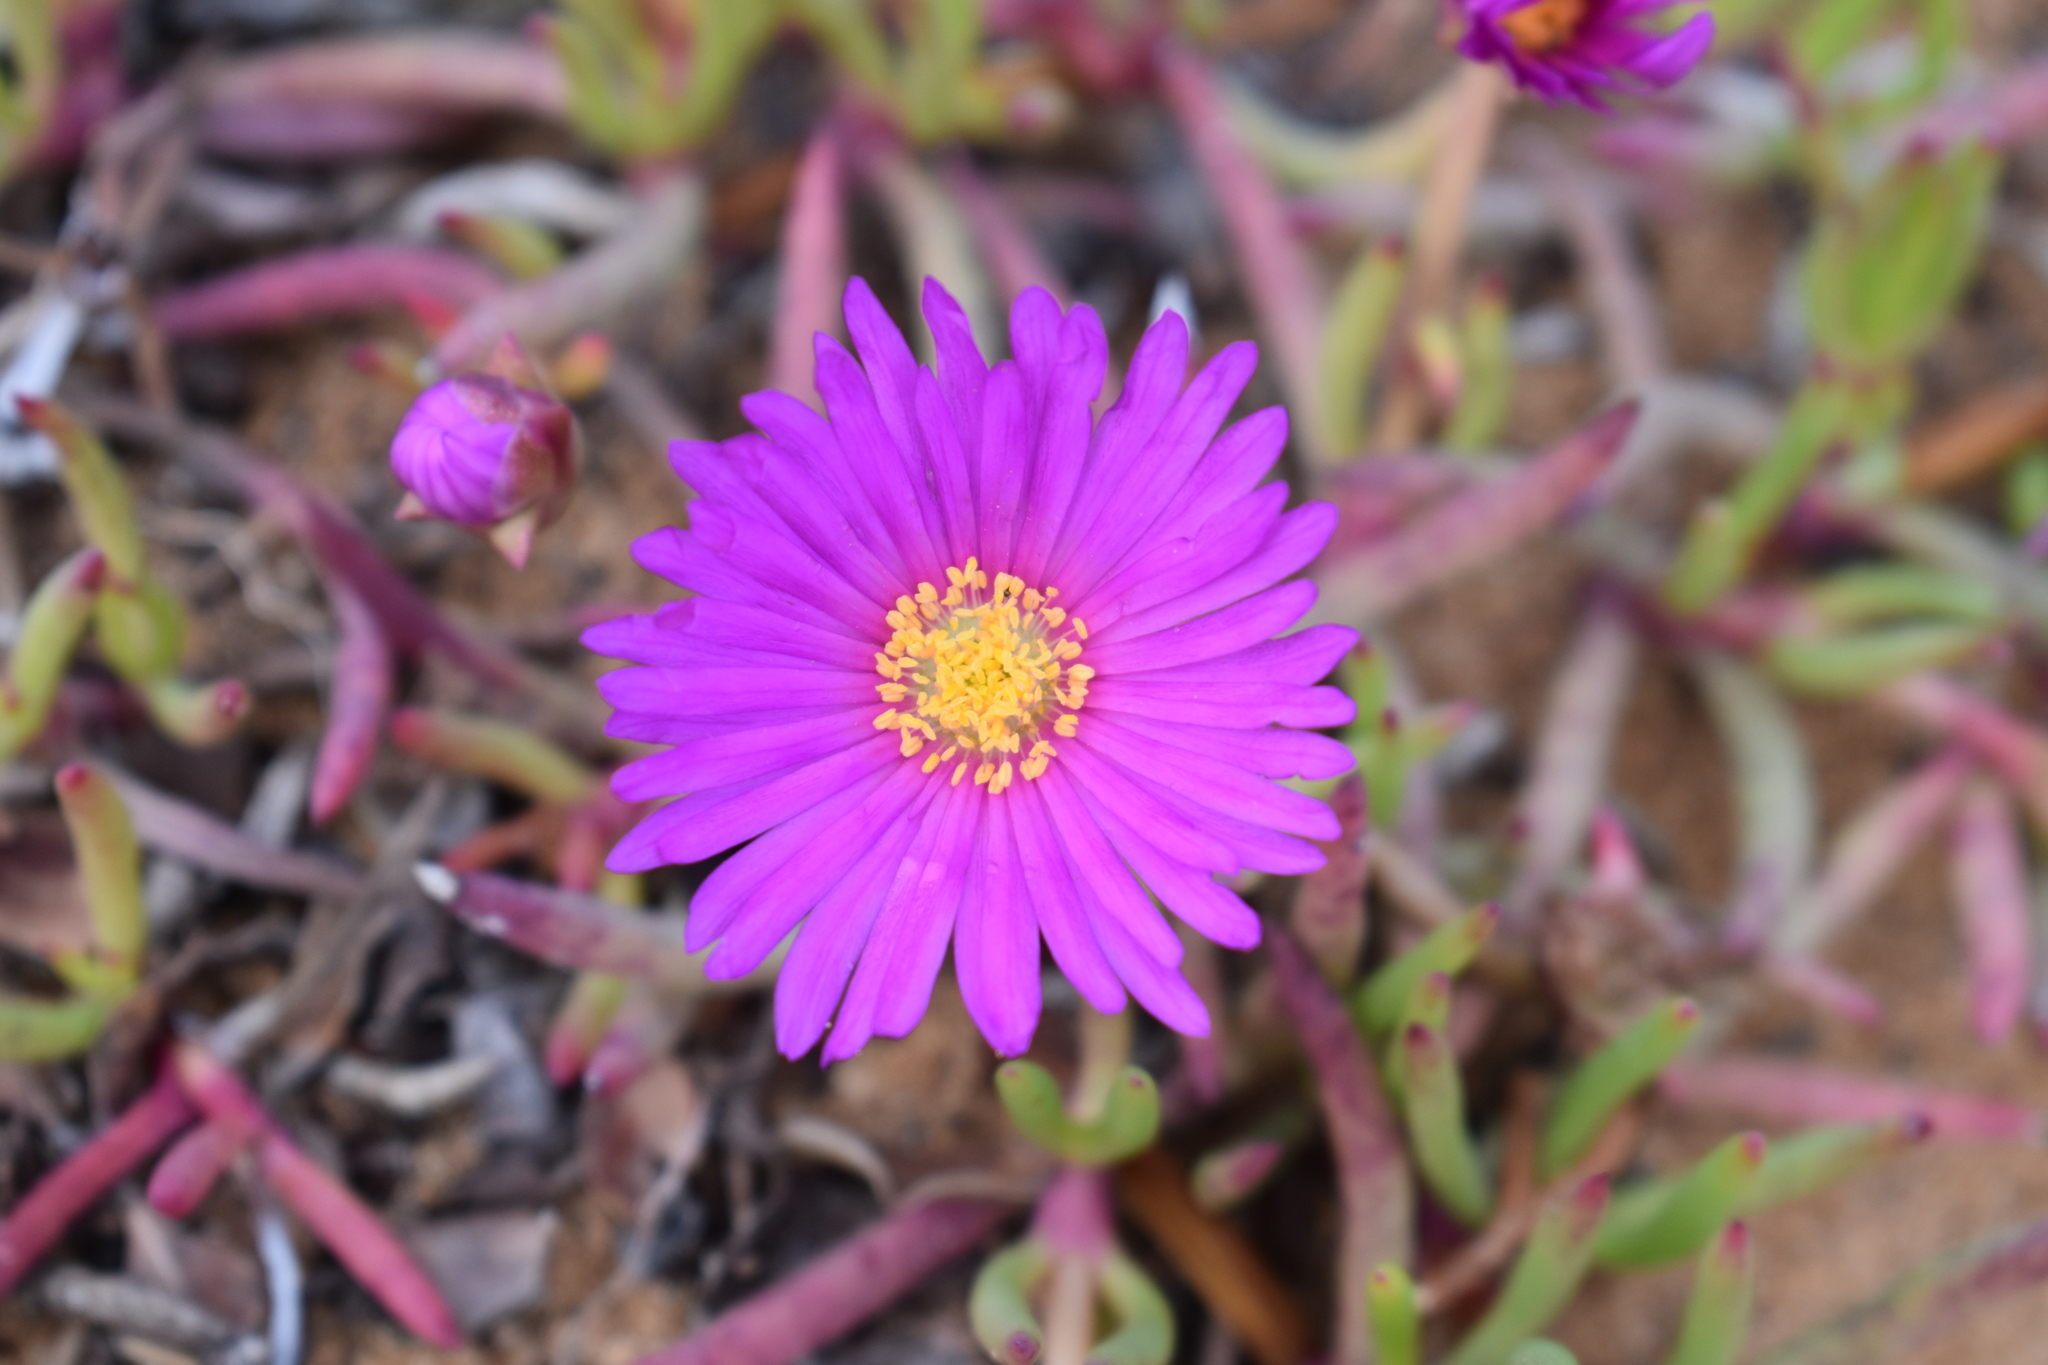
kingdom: Plantae
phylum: Tracheophyta
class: Magnoliopsida
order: Caryophyllales
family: Aizoaceae
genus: Jordaaniella
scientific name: Jordaaniella dubia
